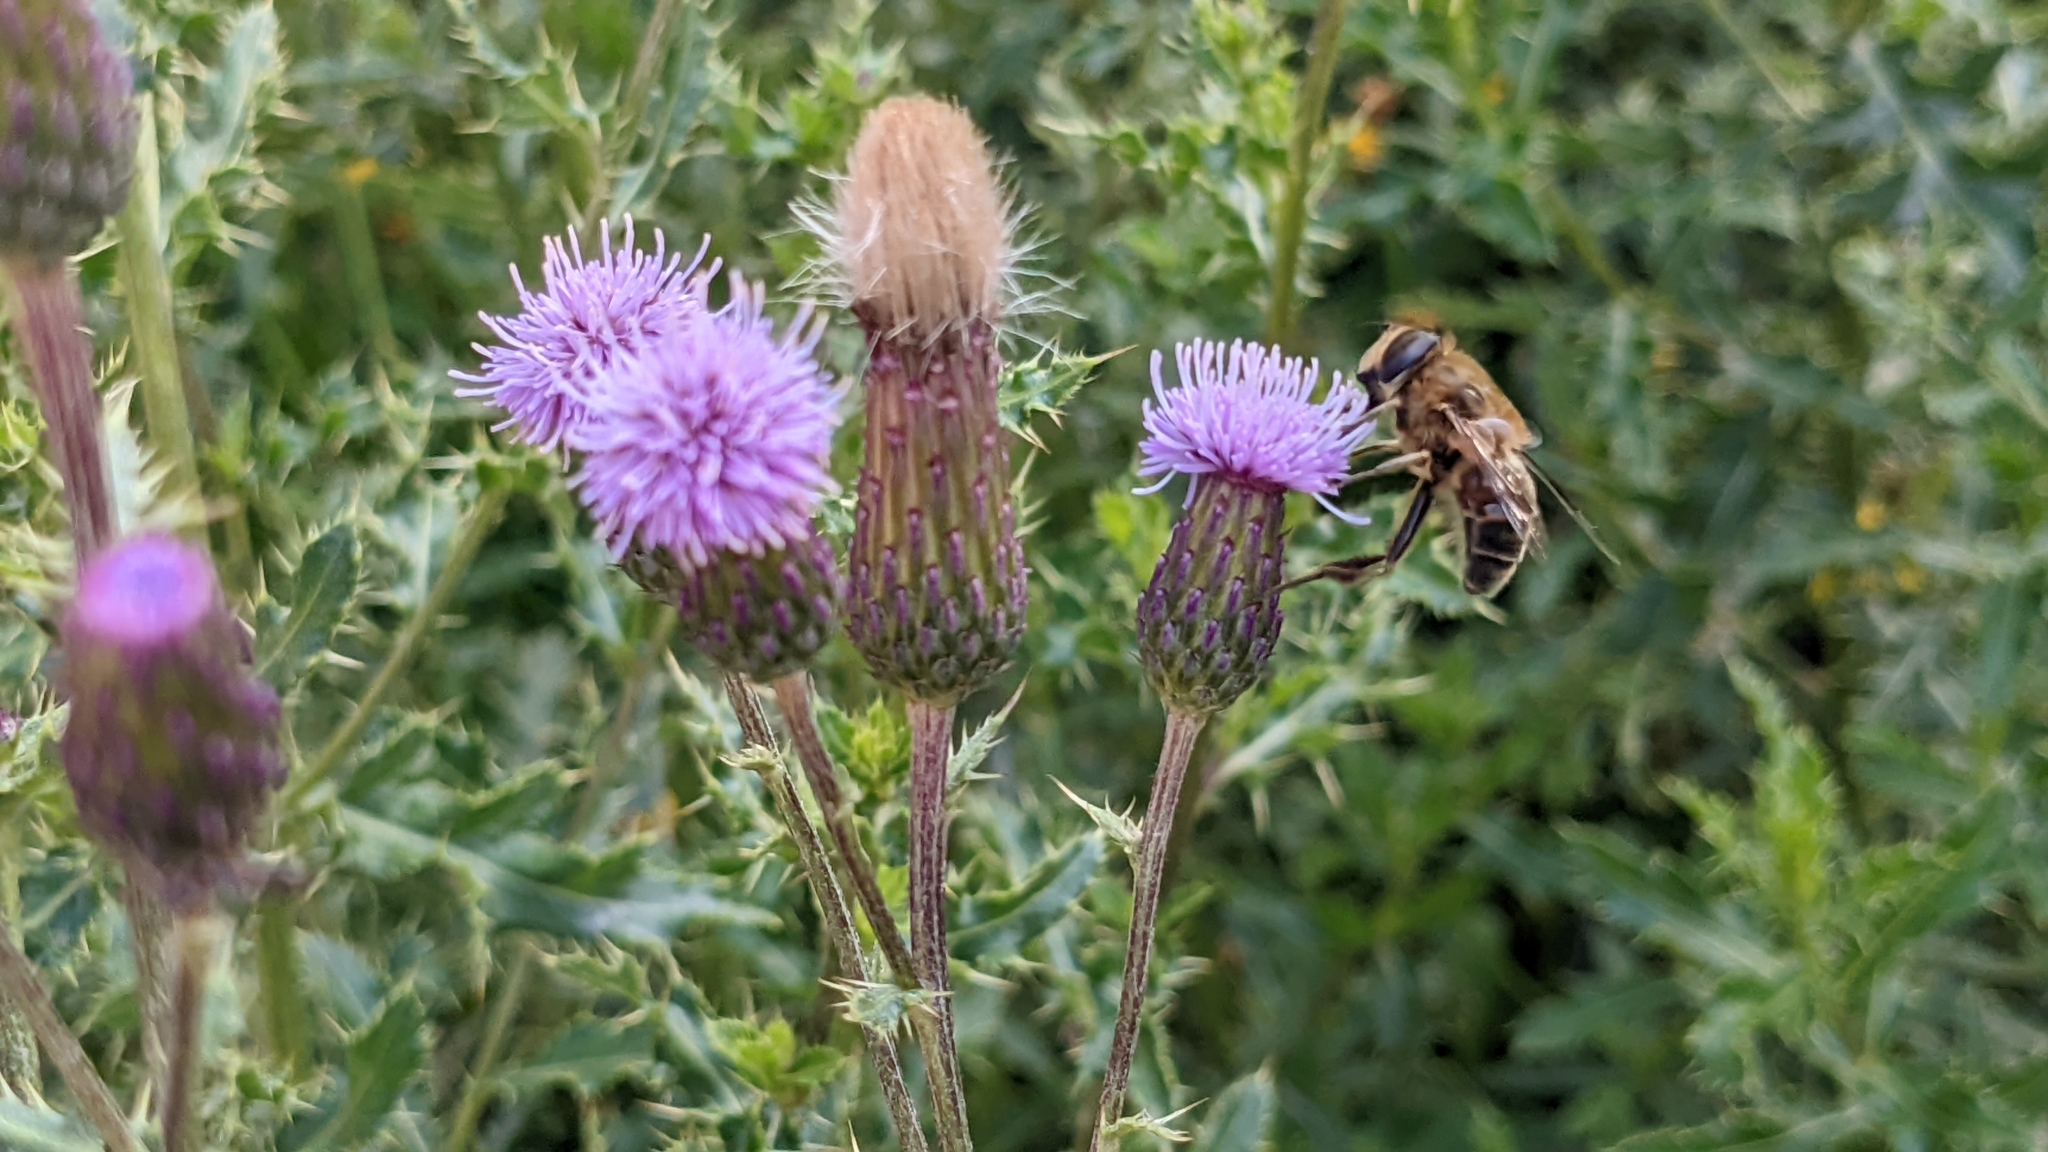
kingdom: Animalia
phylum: Arthropoda
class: Insecta
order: Diptera
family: Syrphidae
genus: Eristalis
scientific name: Eristalis tenax
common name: Drone fly
